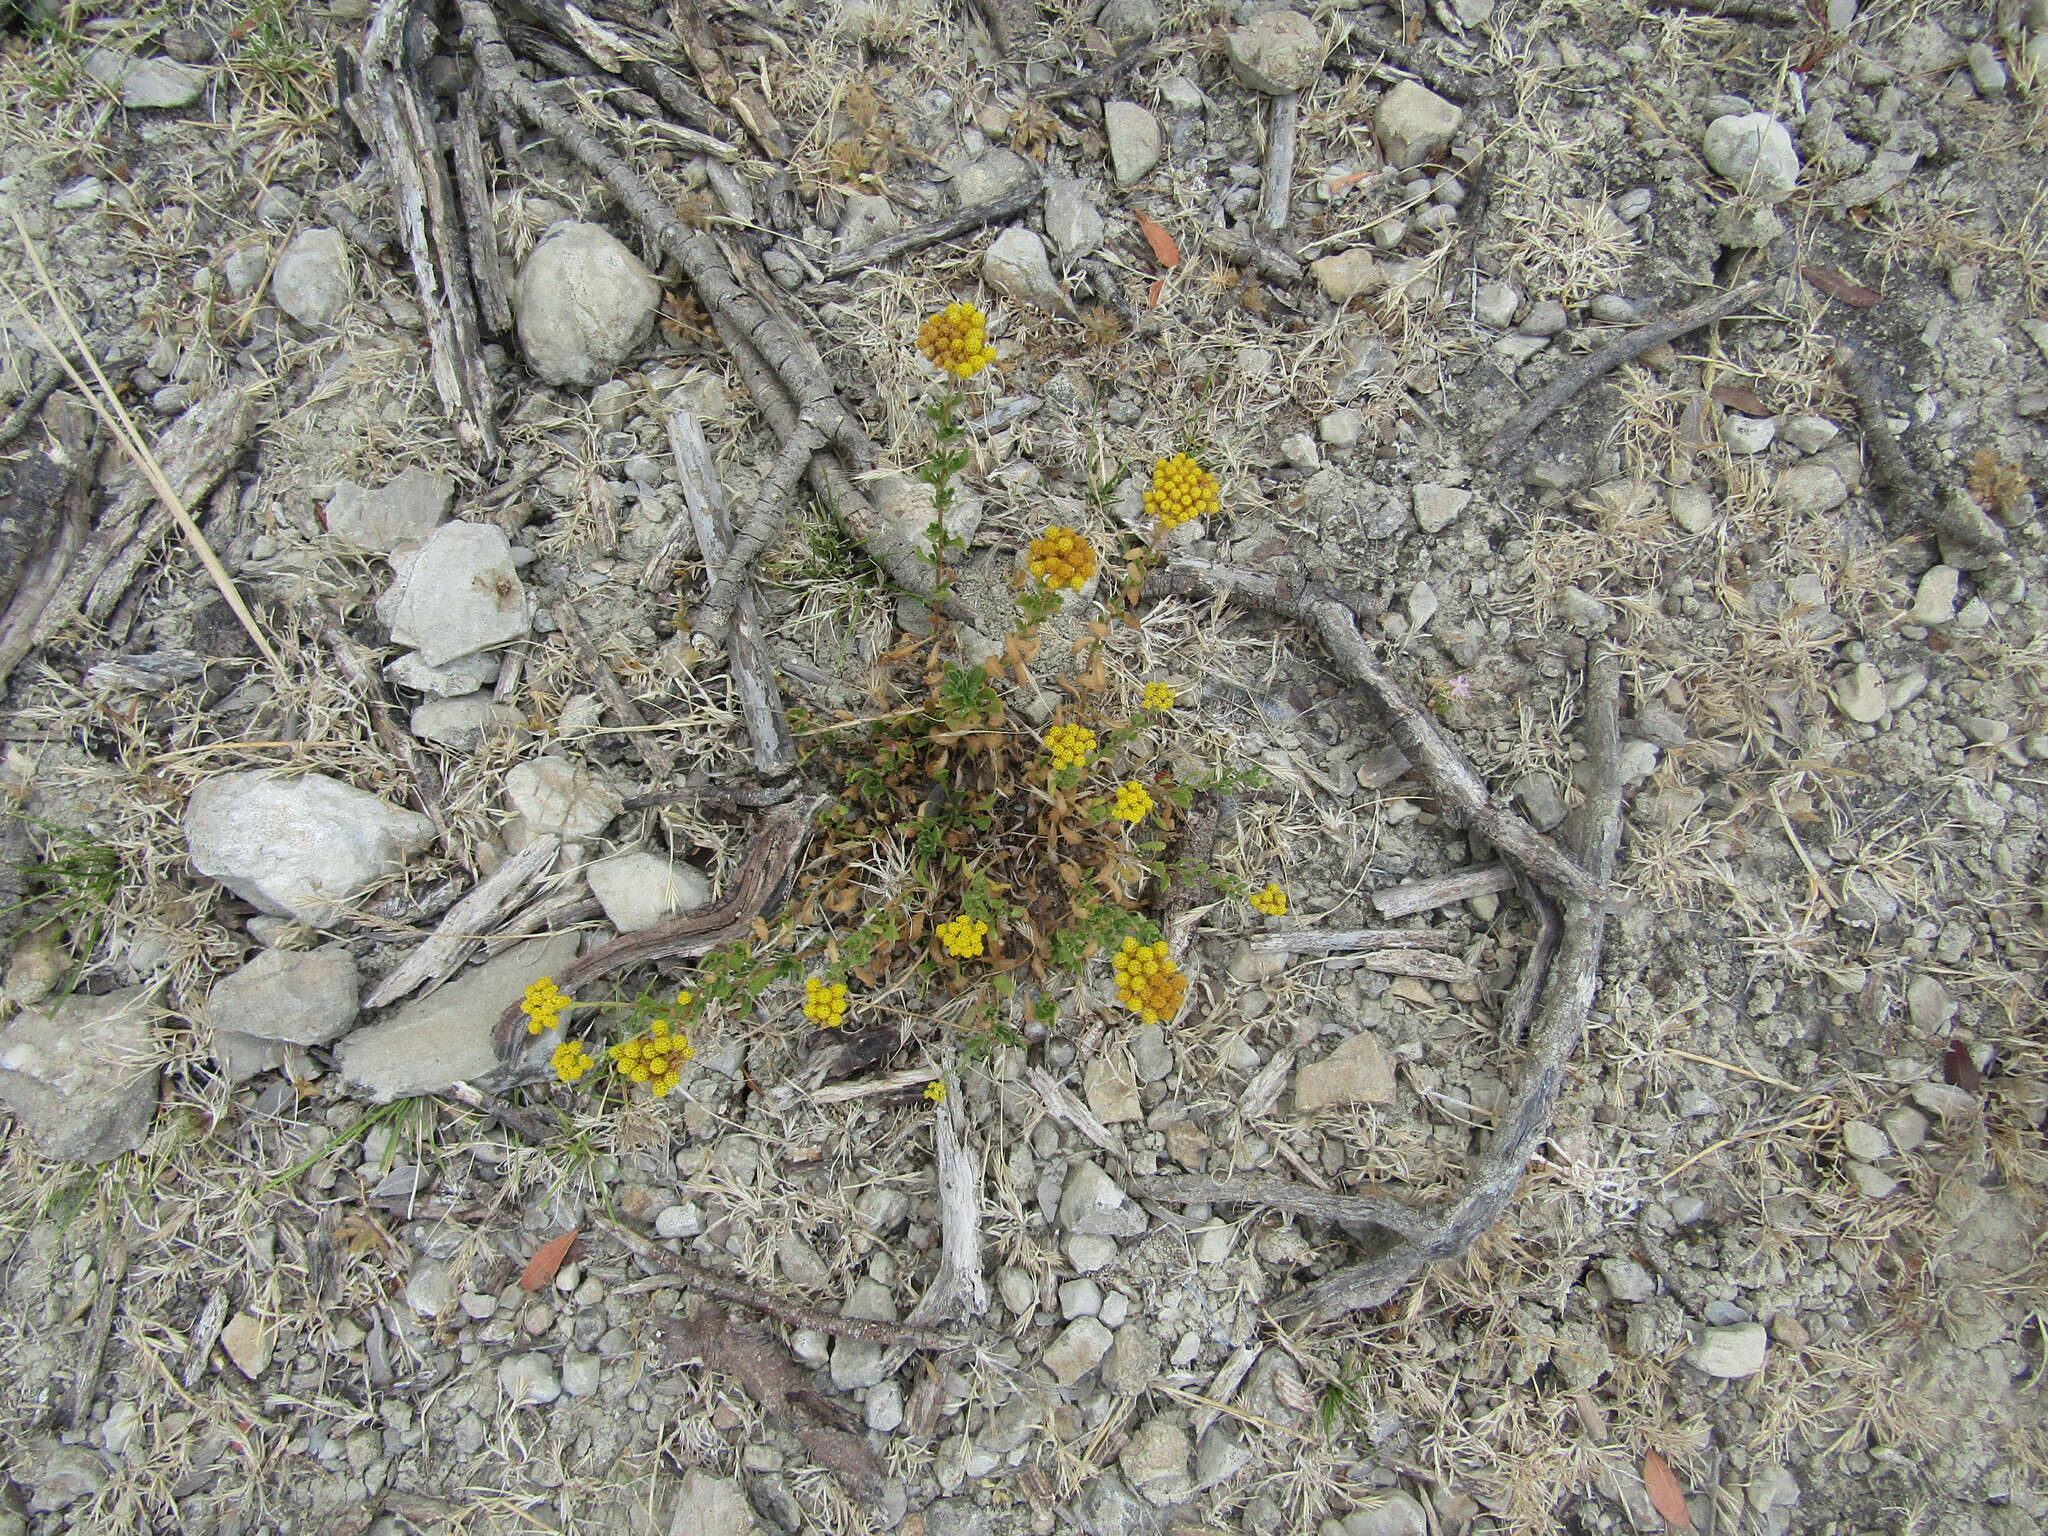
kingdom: Plantae
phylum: Tracheophyta
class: Magnoliopsida
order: Asterales
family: Asteraceae
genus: Achillea
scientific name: Achillea ageratum
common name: Sweet-nancy
